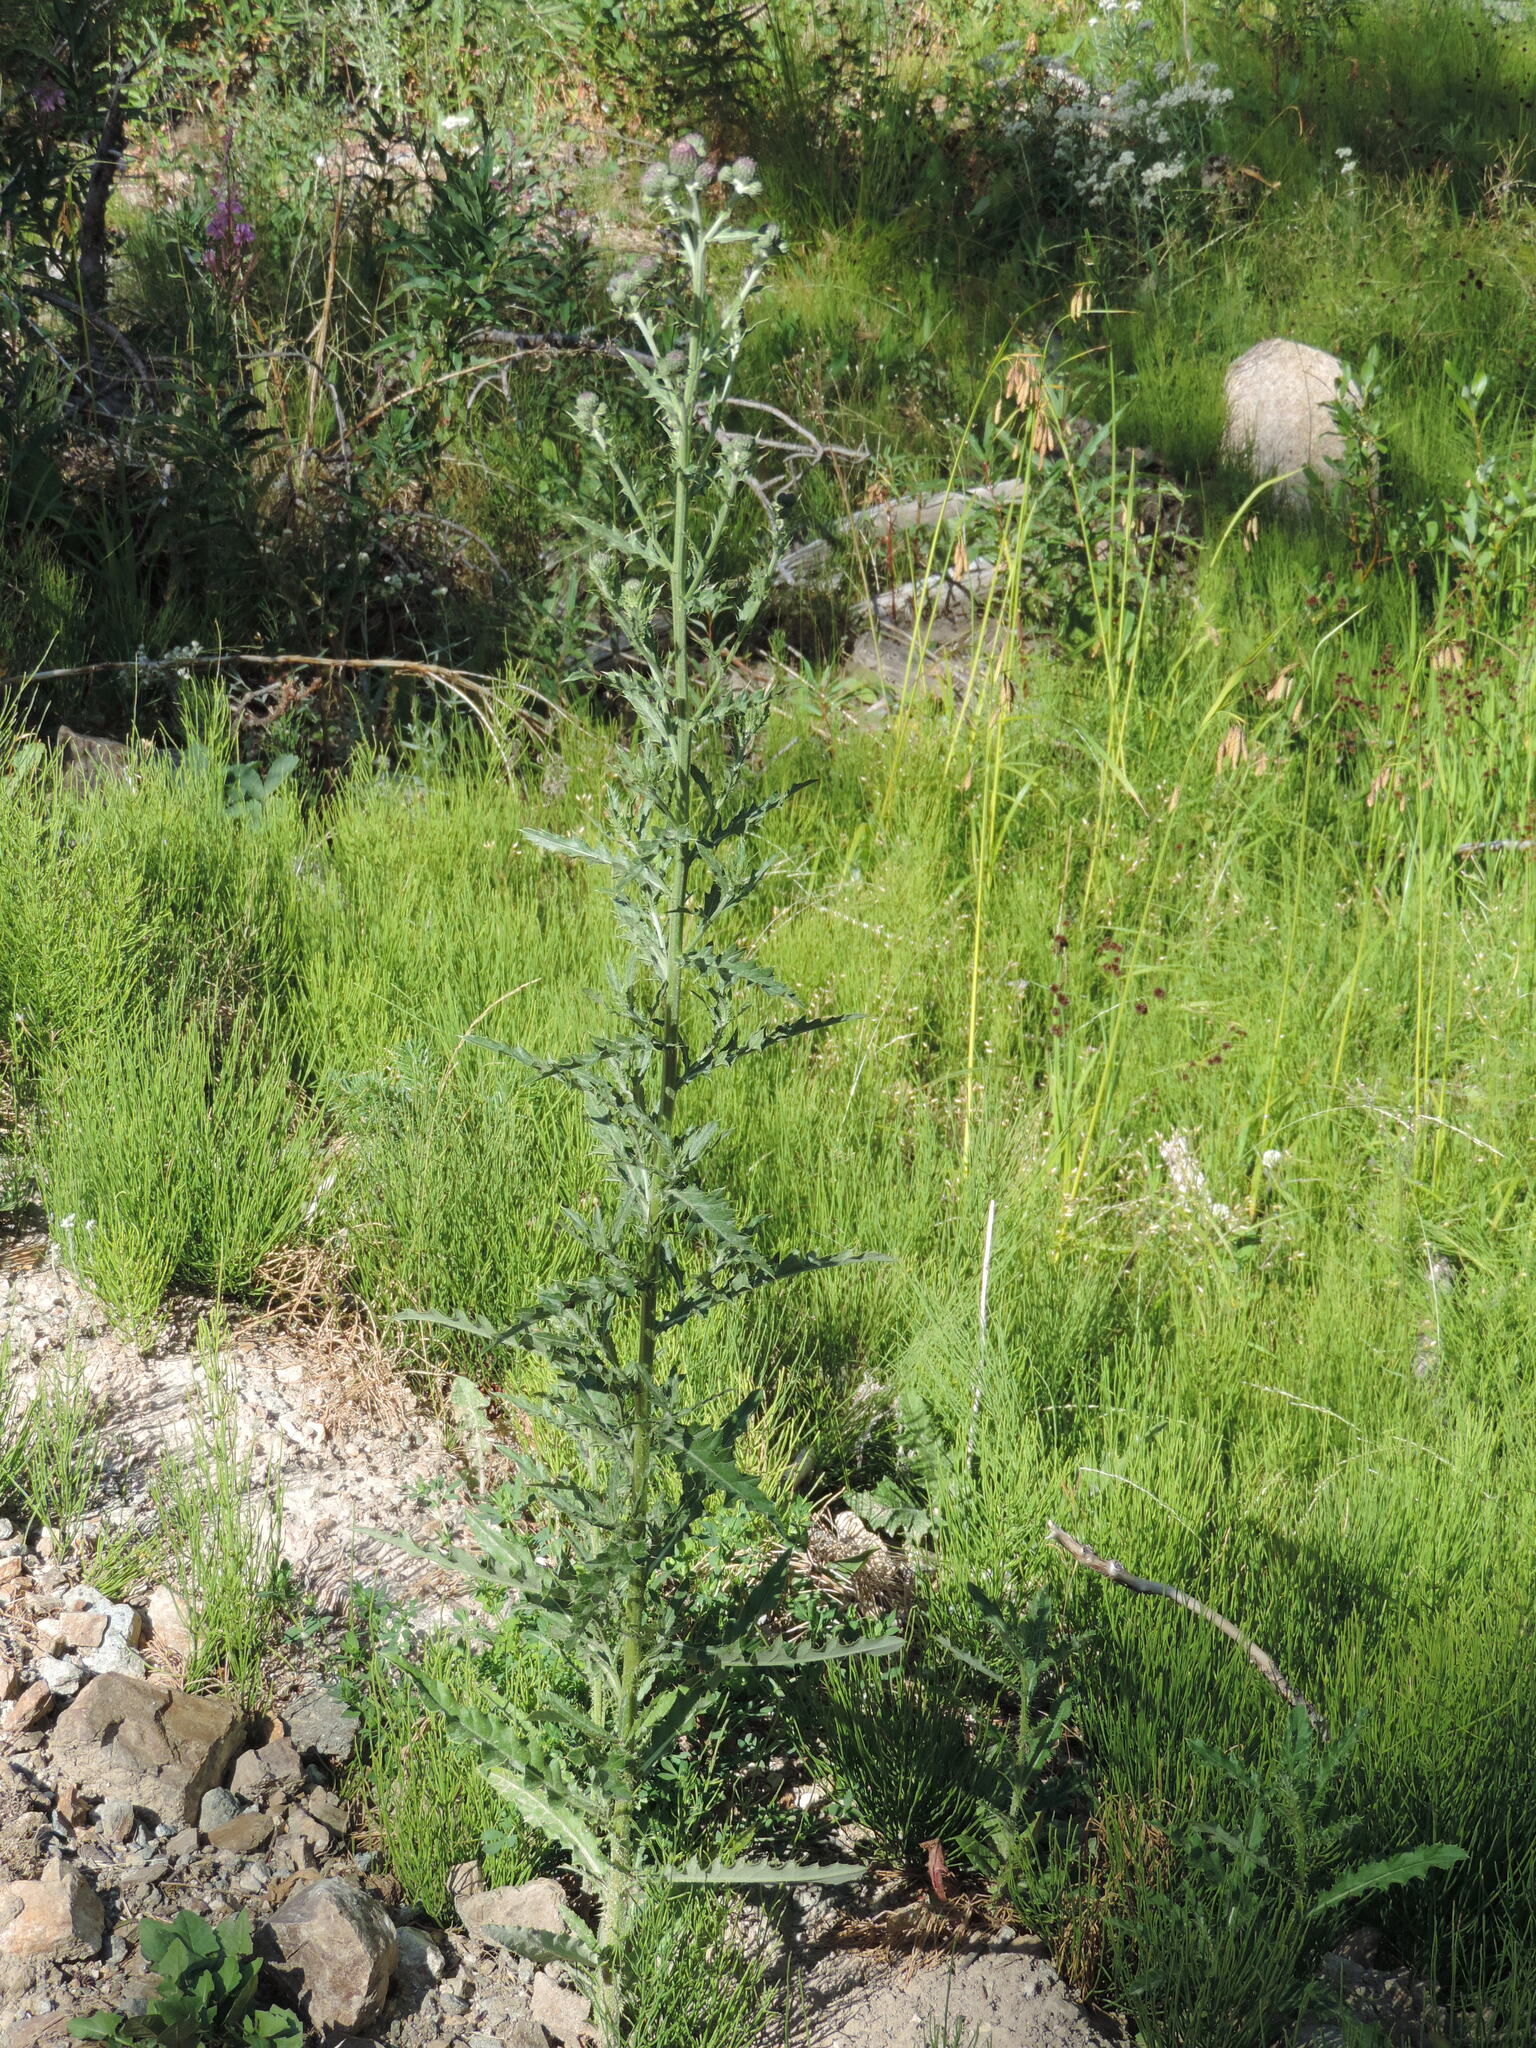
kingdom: Plantae
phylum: Tracheophyta
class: Magnoliopsida
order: Asterales
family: Asteraceae
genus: Cirsium
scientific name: Cirsium arvense
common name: Creeping thistle
